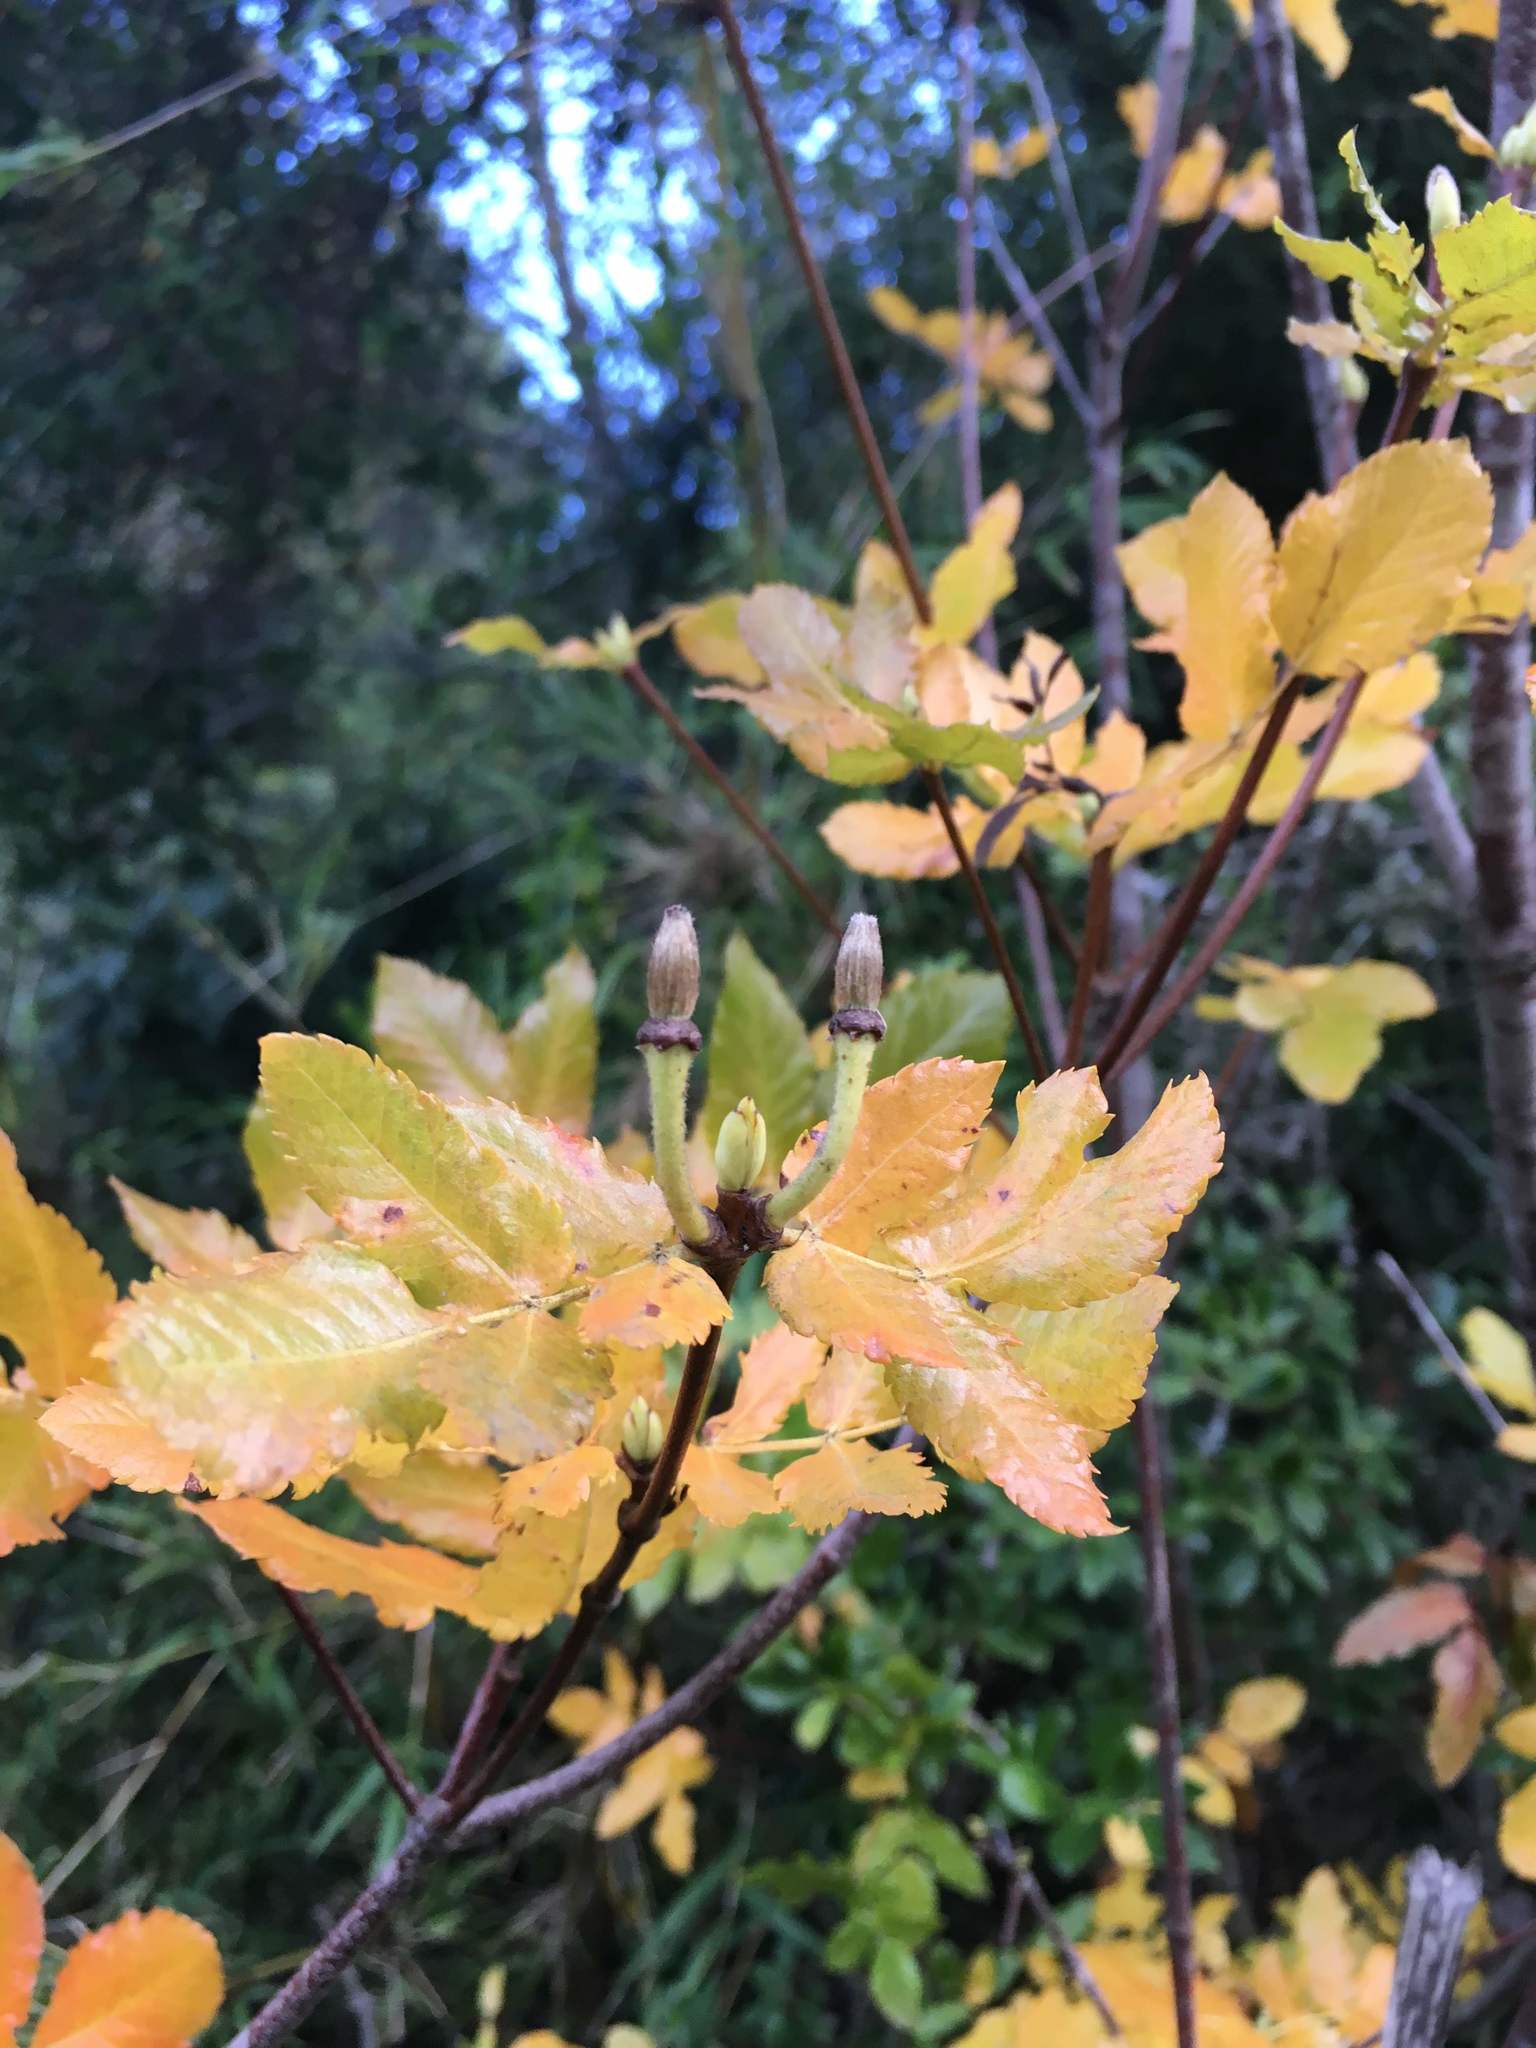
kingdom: Plantae
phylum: Tracheophyta
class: Magnoliopsida
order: Oxalidales
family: Cunoniaceae
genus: Eucryphia
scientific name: Eucryphia glutinosa
